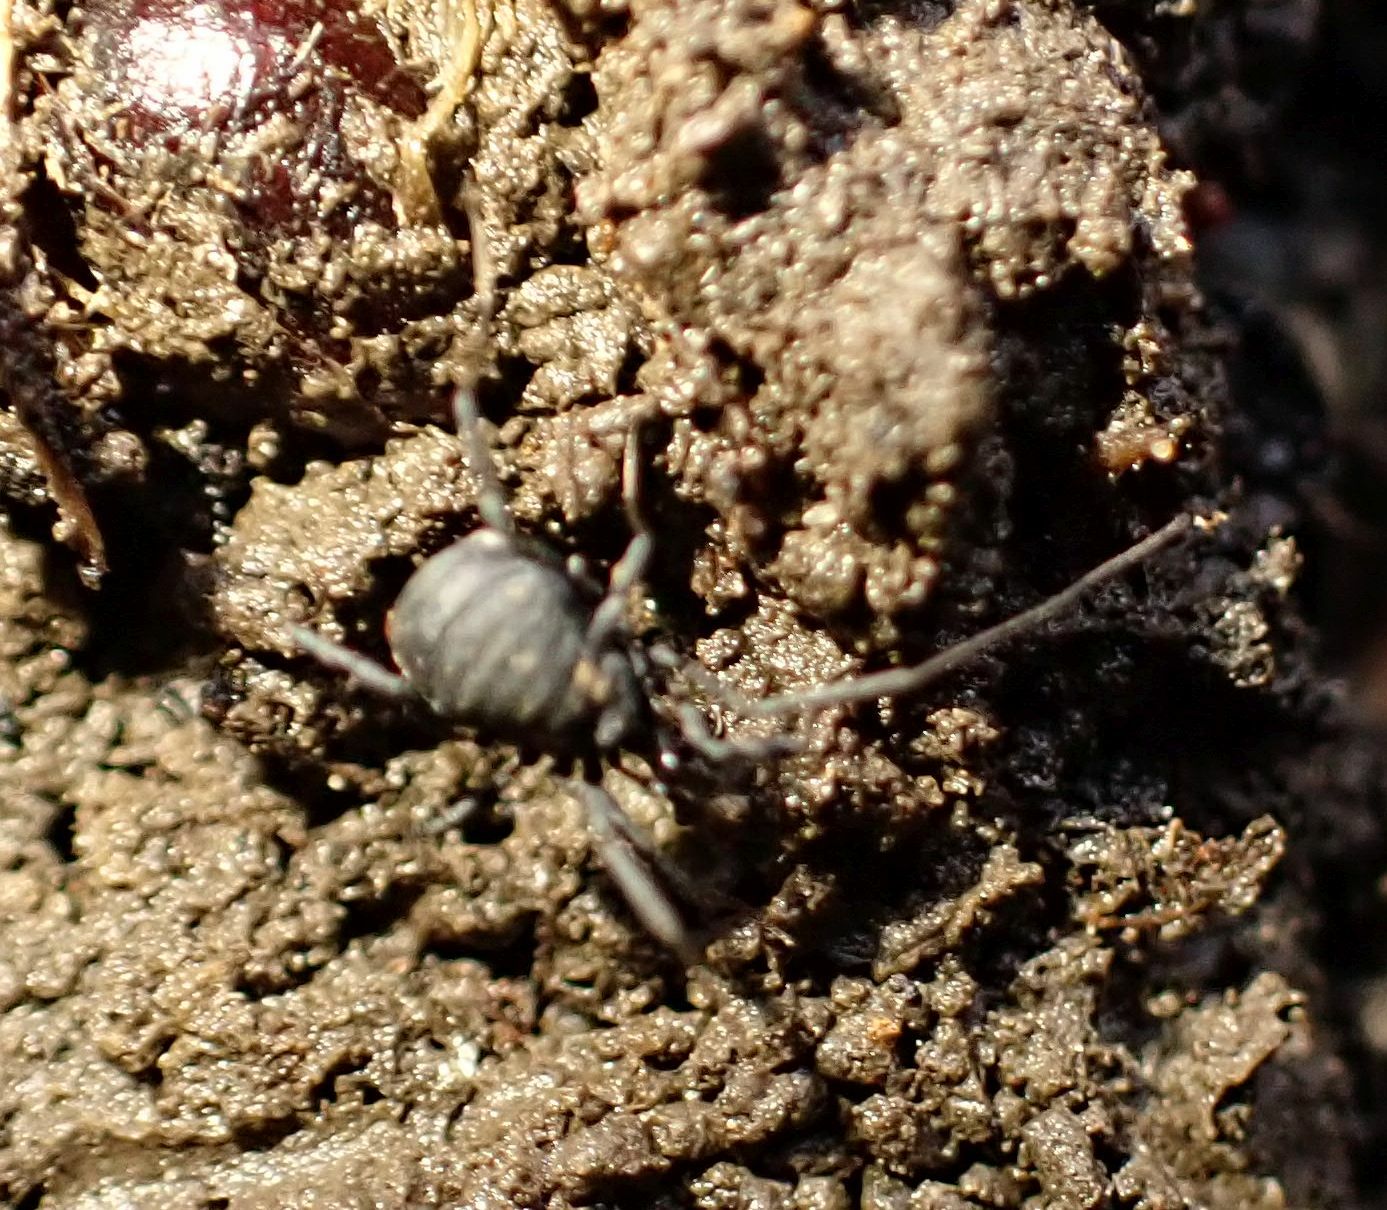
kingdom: Animalia
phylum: Arthropoda
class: Arachnida
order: Opiliones
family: Nemastomatidae
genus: Nemastoma
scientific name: Nemastoma bimaculatum
